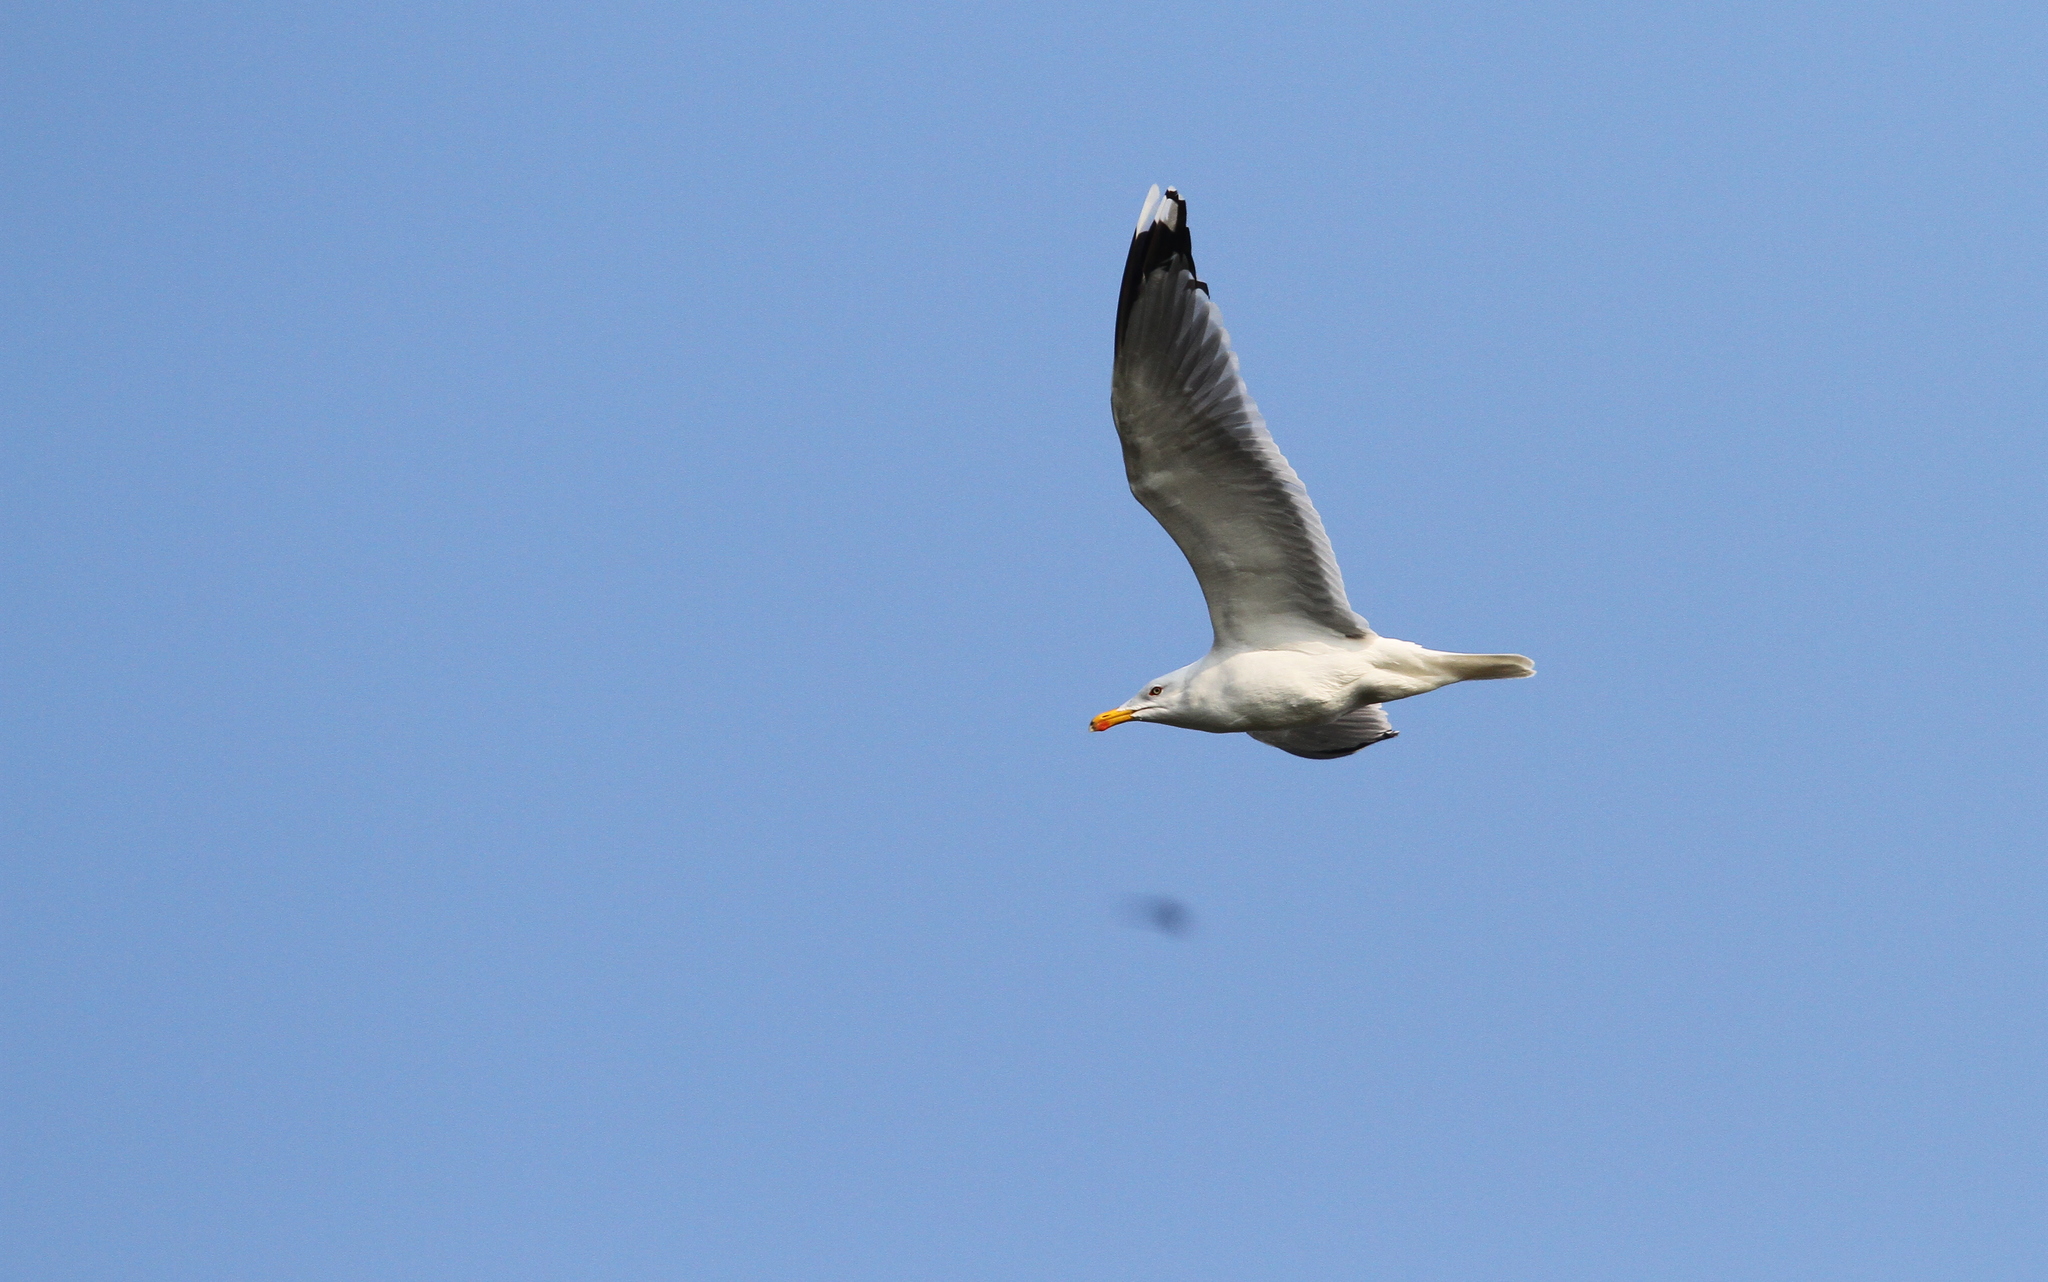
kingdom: Animalia
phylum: Chordata
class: Aves
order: Charadriiformes
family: Laridae
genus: Larus
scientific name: Larus michahellis
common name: Yellow-legged gull
